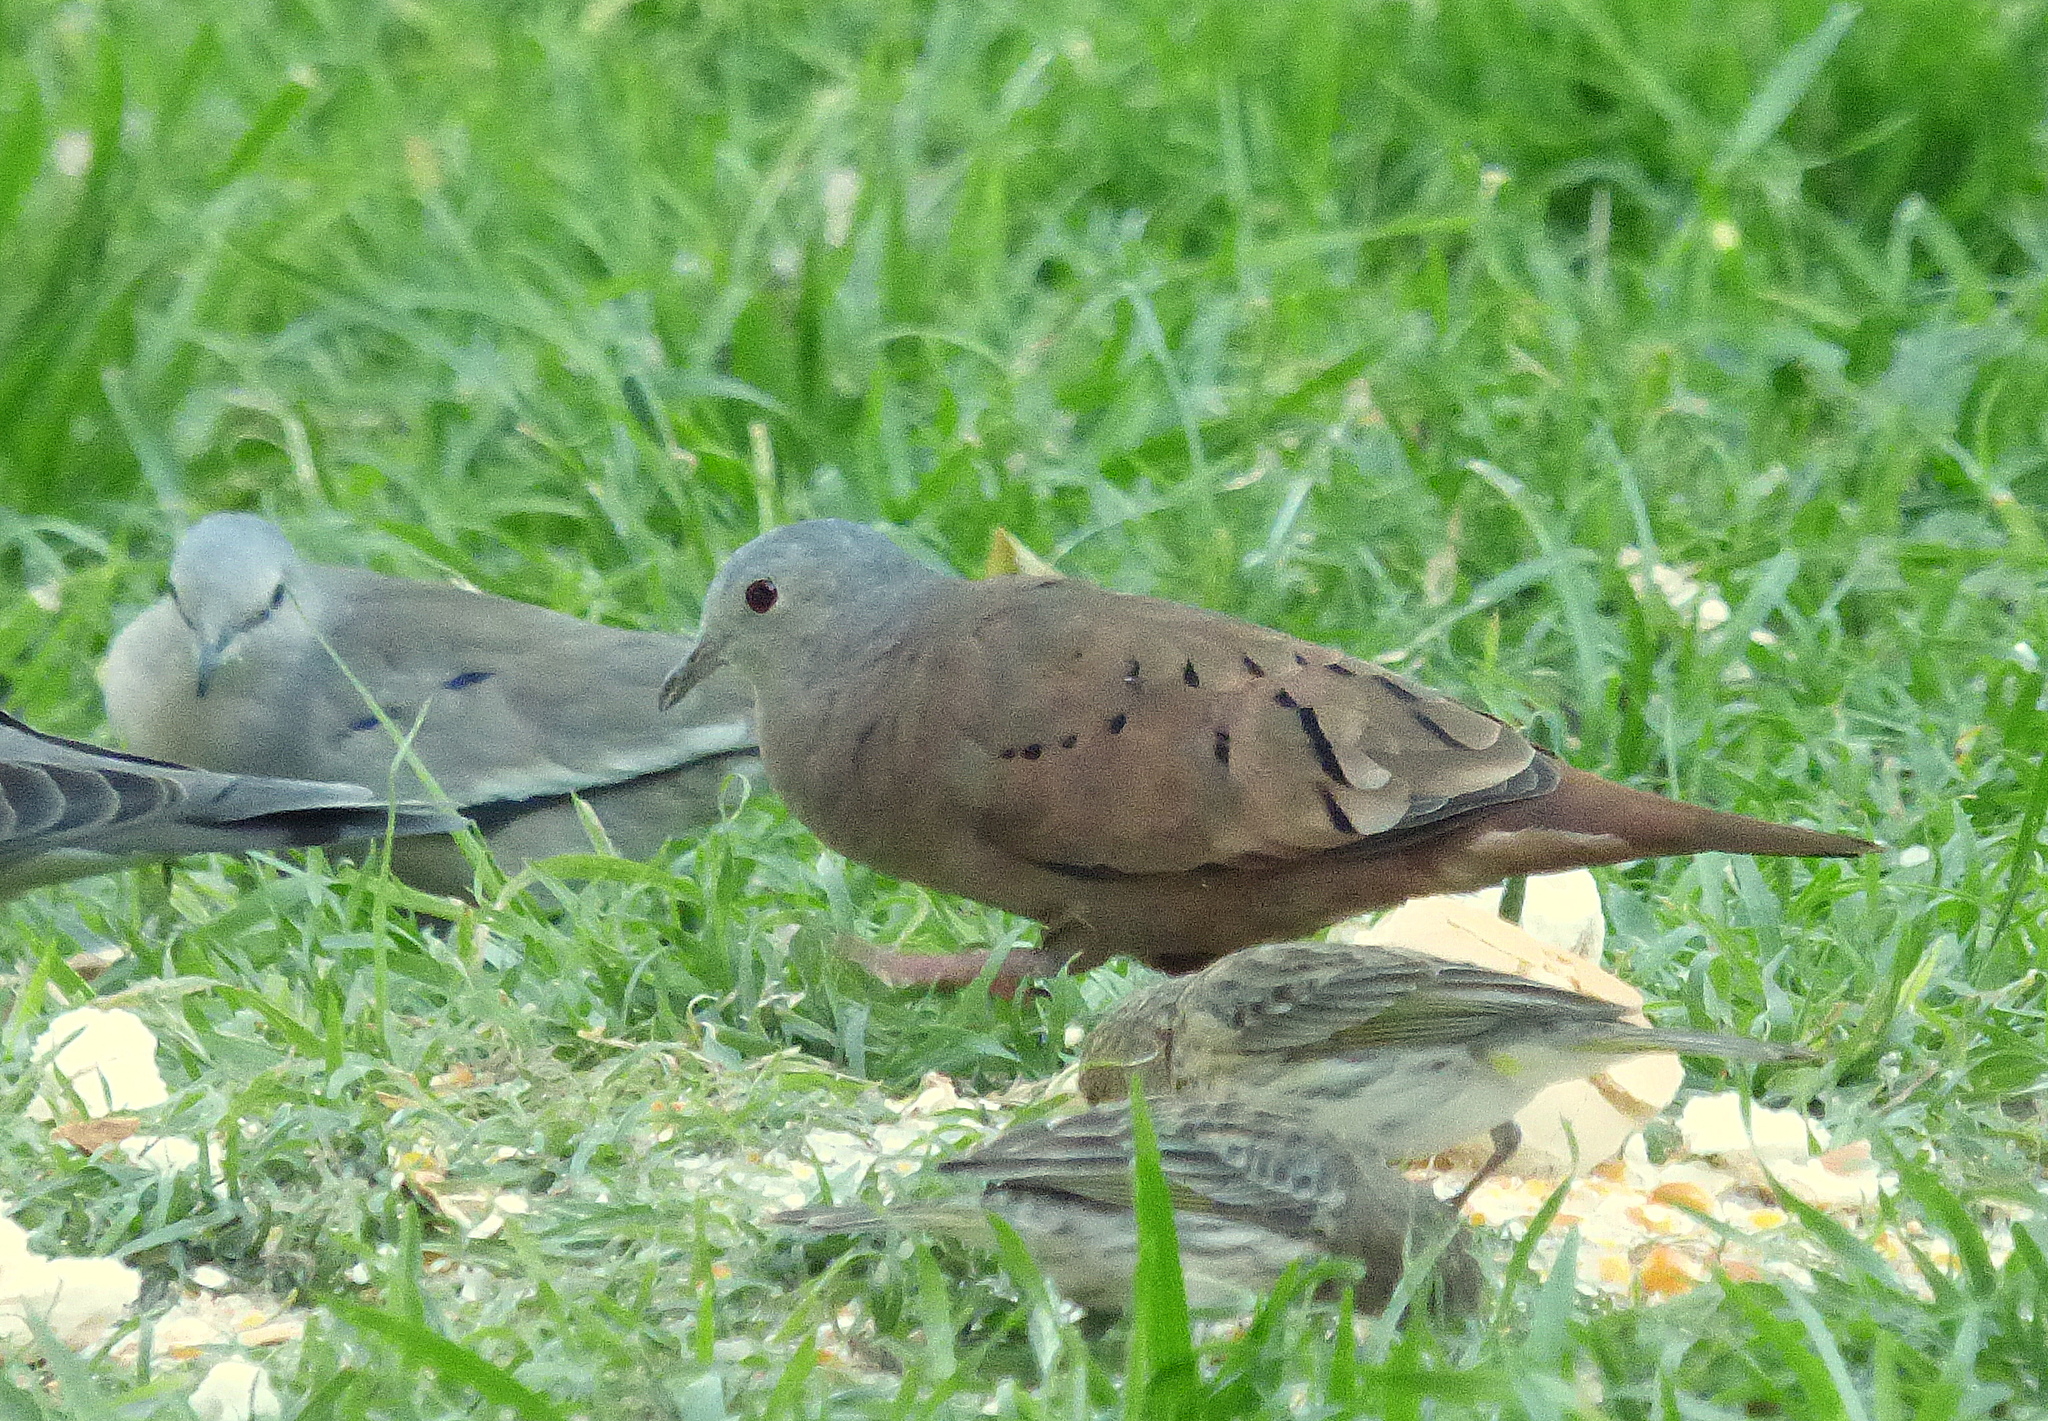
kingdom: Animalia
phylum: Chordata
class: Aves
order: Columbiformes
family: Columbidae
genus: Columbina
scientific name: Columbina talpacoti
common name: Ruddy ground dove
